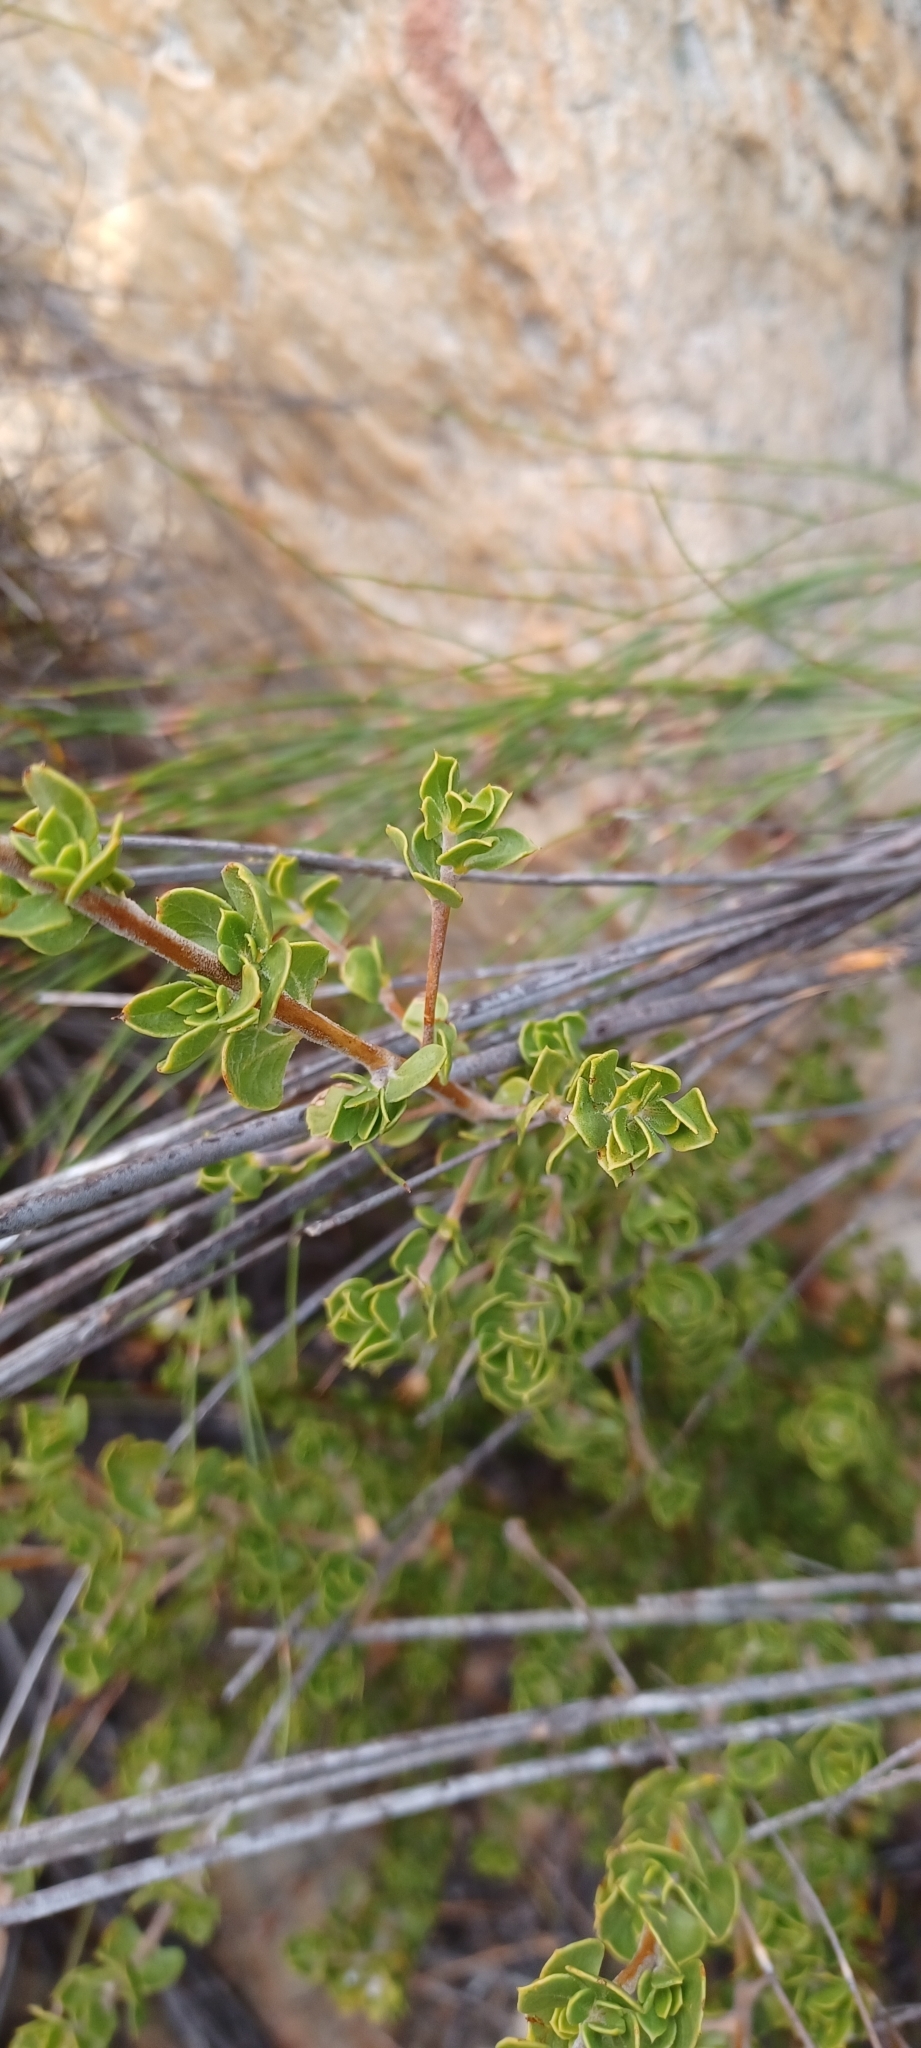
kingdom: Plantae
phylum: Tracheophyta
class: Magnoliopsida
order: Fabales
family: Fabaceae
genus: Hypocalyptus
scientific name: Hypocalyptus sophoroides
